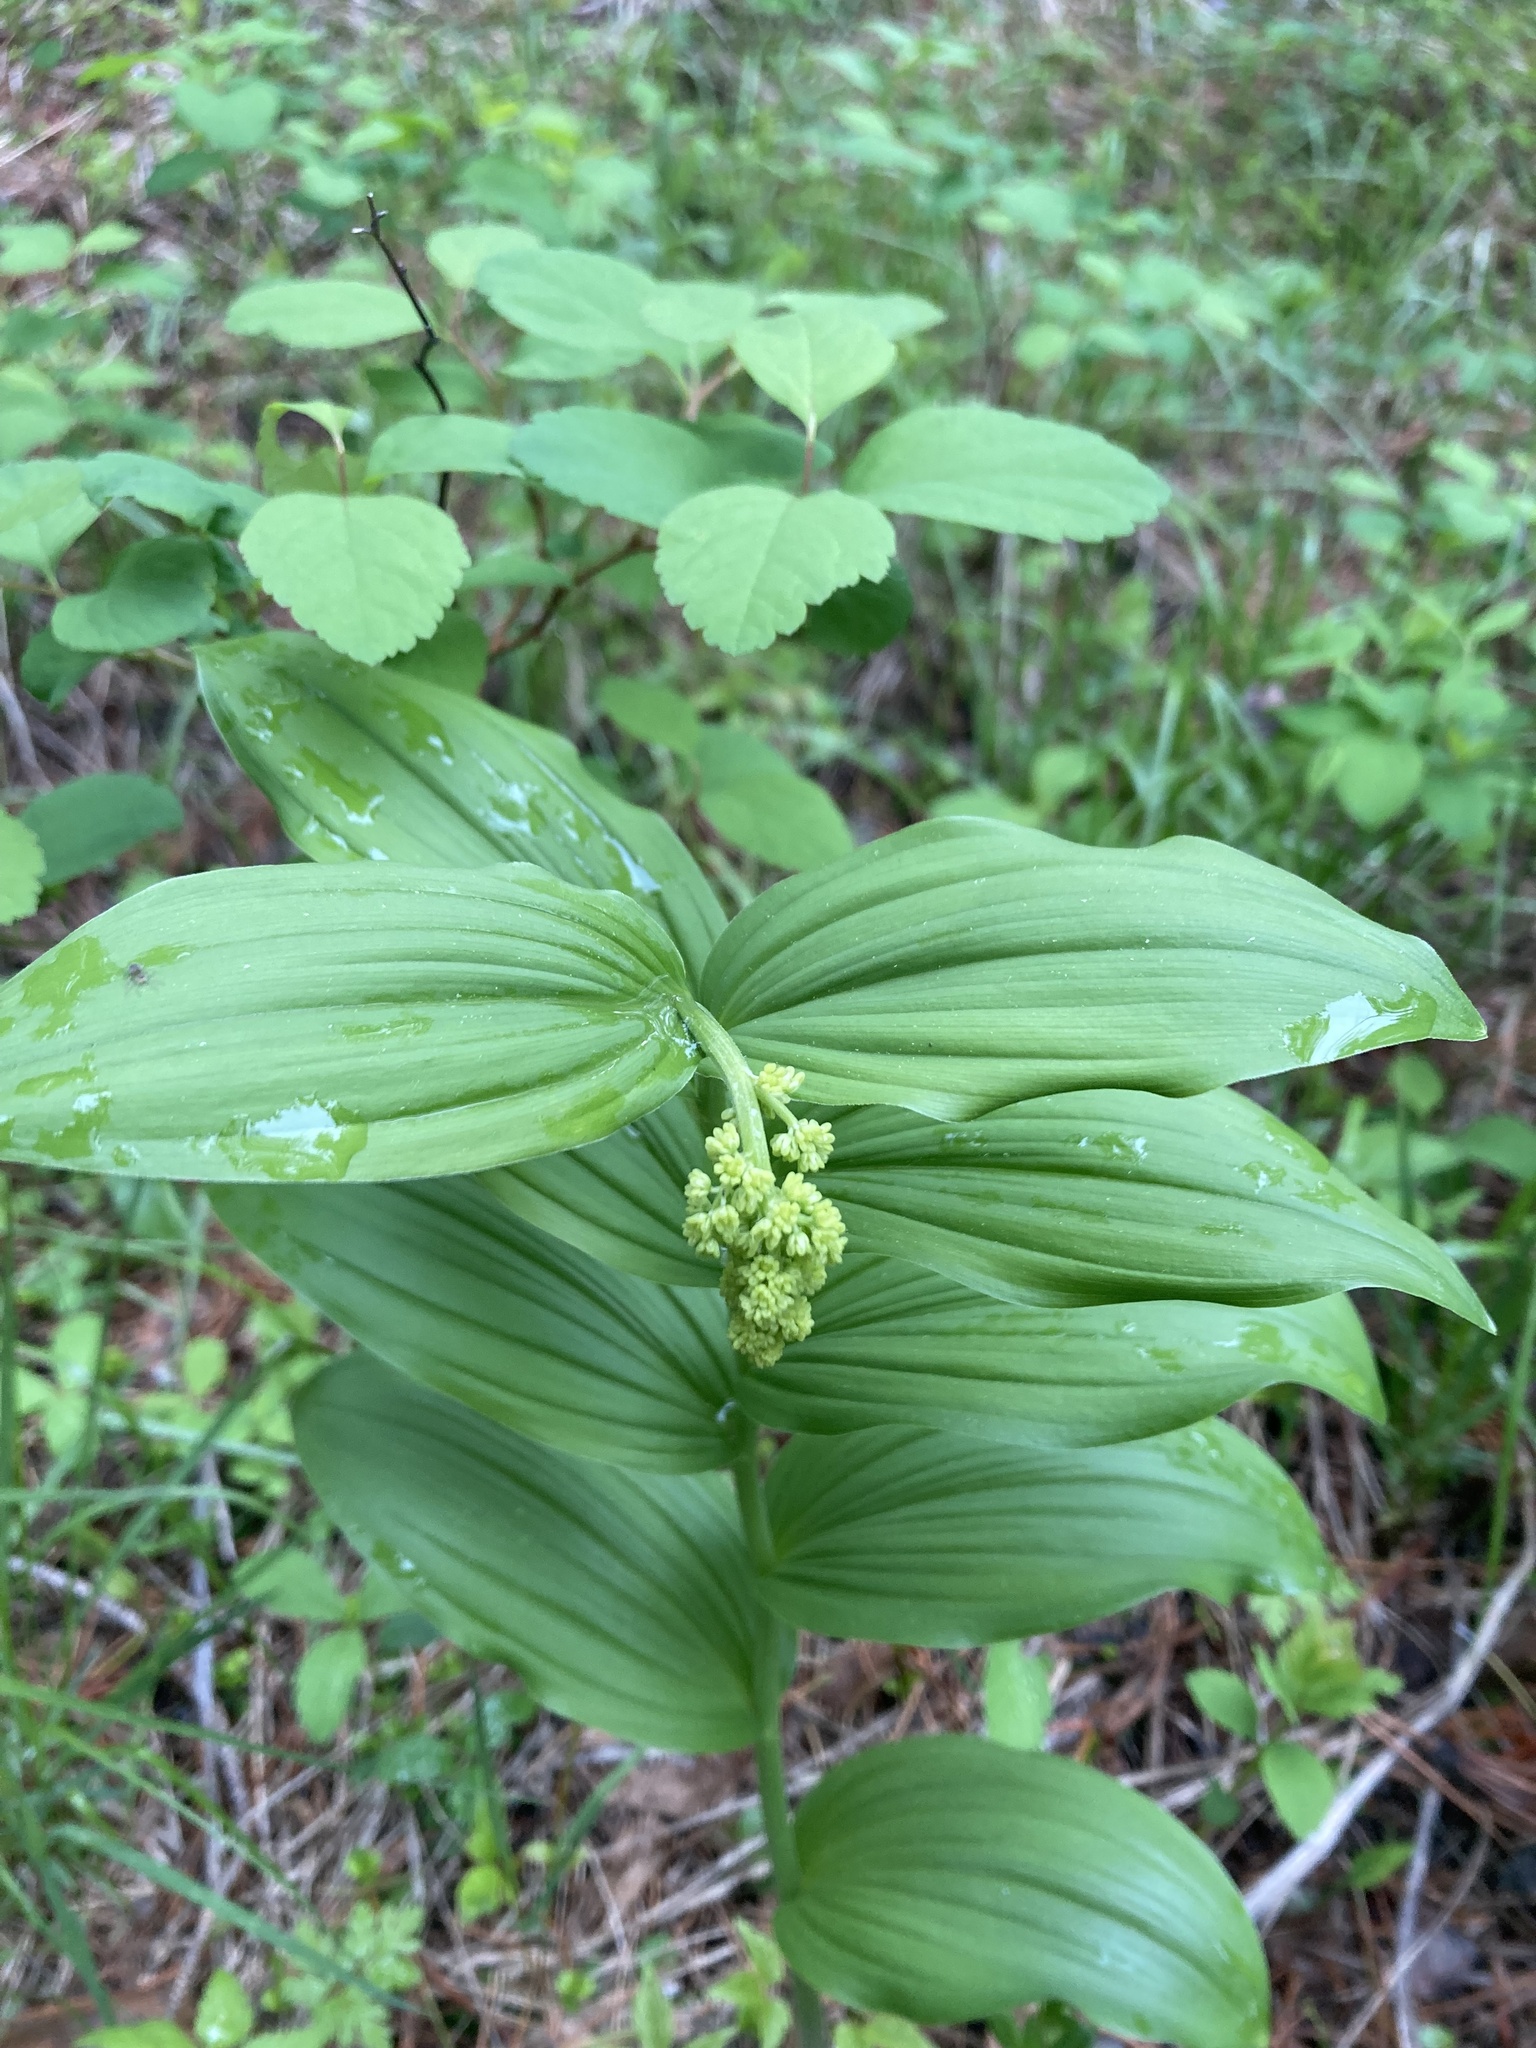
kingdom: Plantae
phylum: Tracheophyta
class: Liliopsida
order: Asparagales
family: Asparagaceae
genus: Maianthemum
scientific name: Maianthemum racemosum
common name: False spikenard
